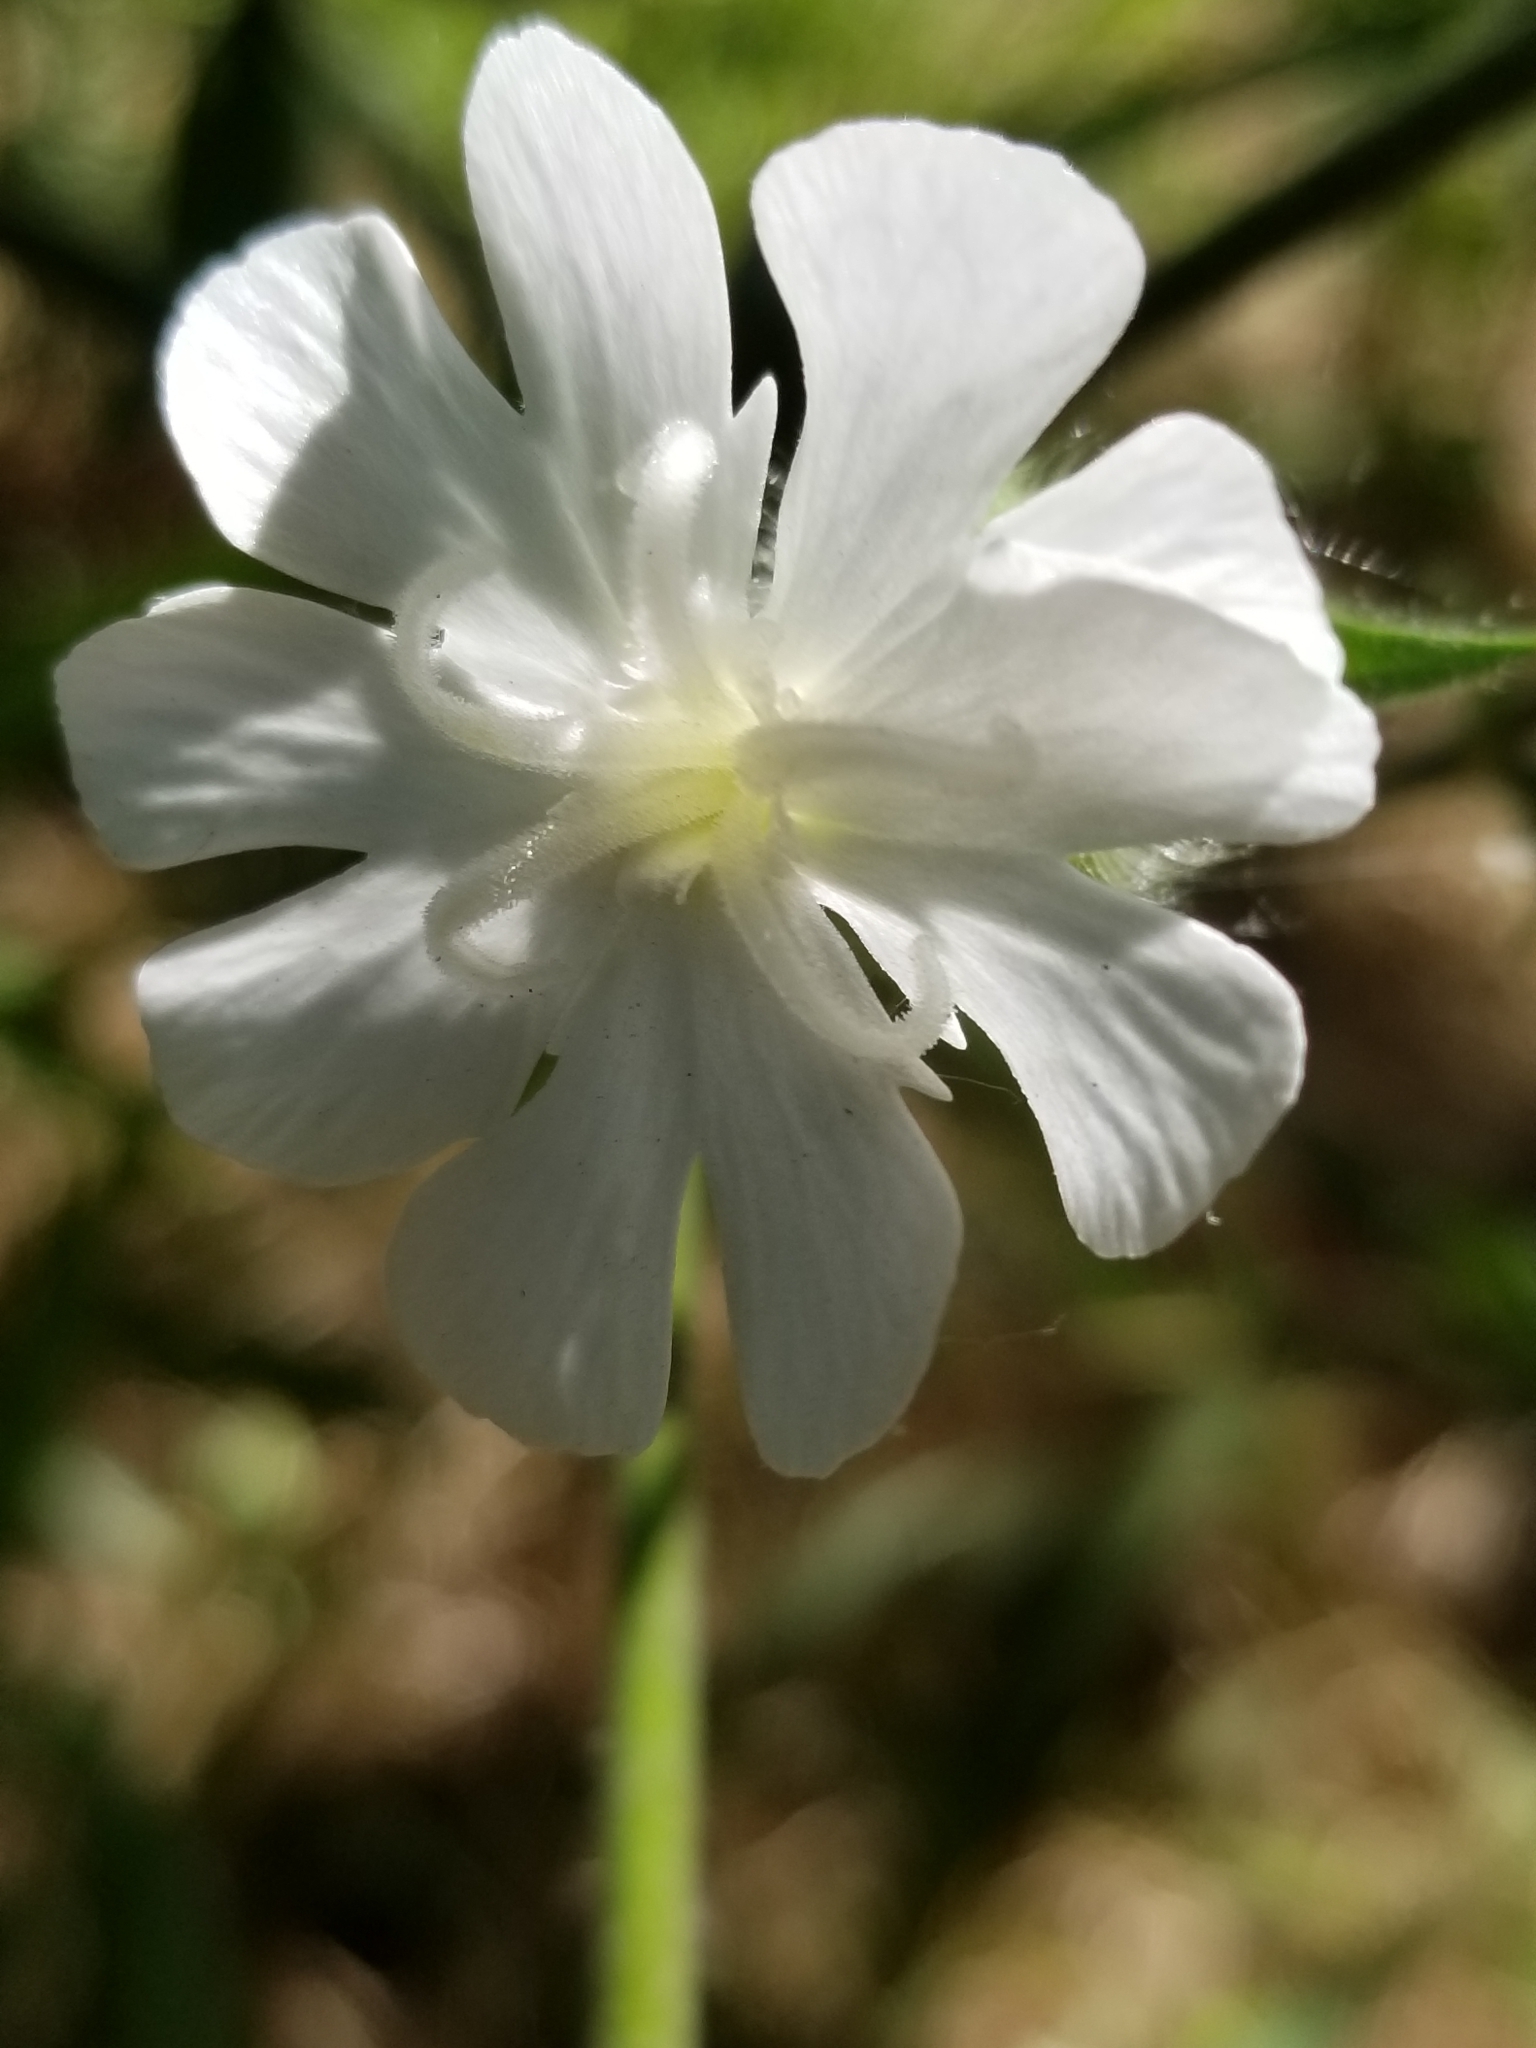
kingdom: Plantae
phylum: Tracheophyta
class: Magnoliopsida
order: Caryophyllales
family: Caryophyllaceae
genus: Silene
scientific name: Silene latifolia
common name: White campion
